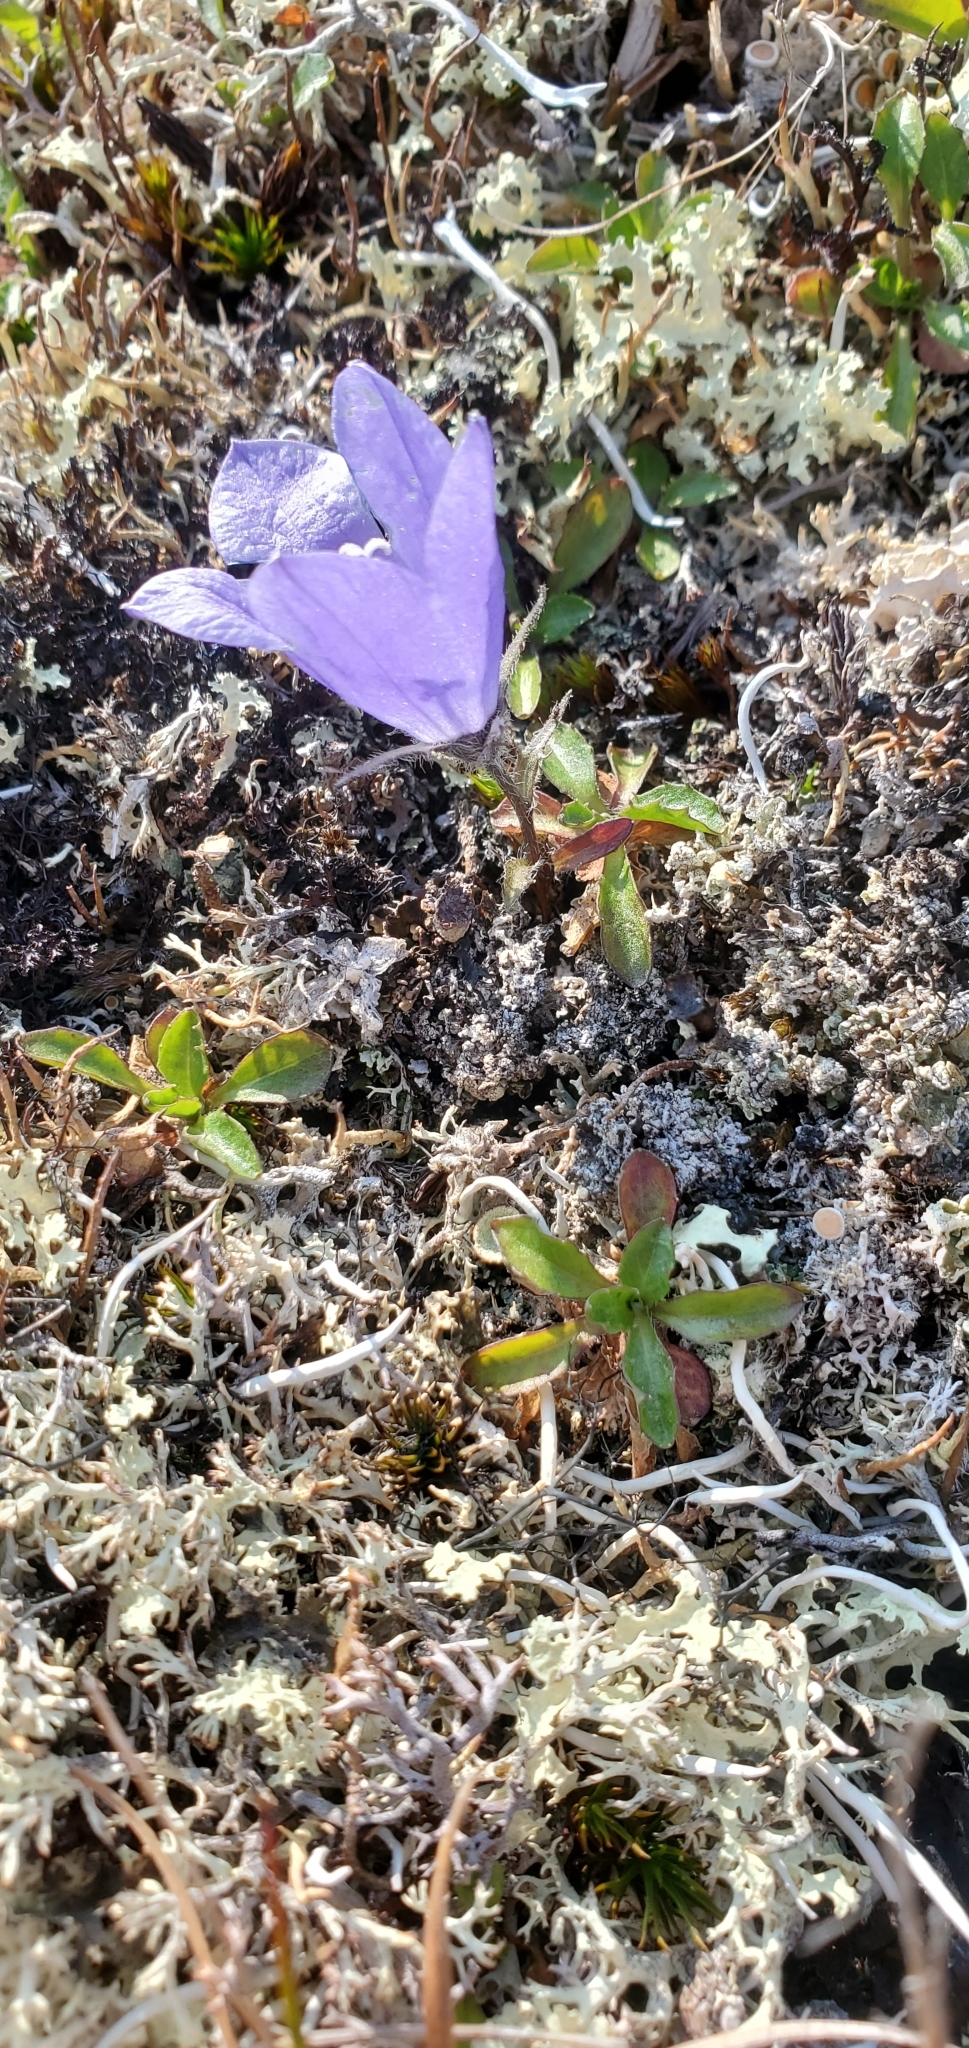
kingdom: Plantae
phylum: Tracheophyta
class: Magnoliopsida
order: Asterales
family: Campanulaceae
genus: Campanula
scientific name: Campanula lasiocarpa
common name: Mountain harebell
